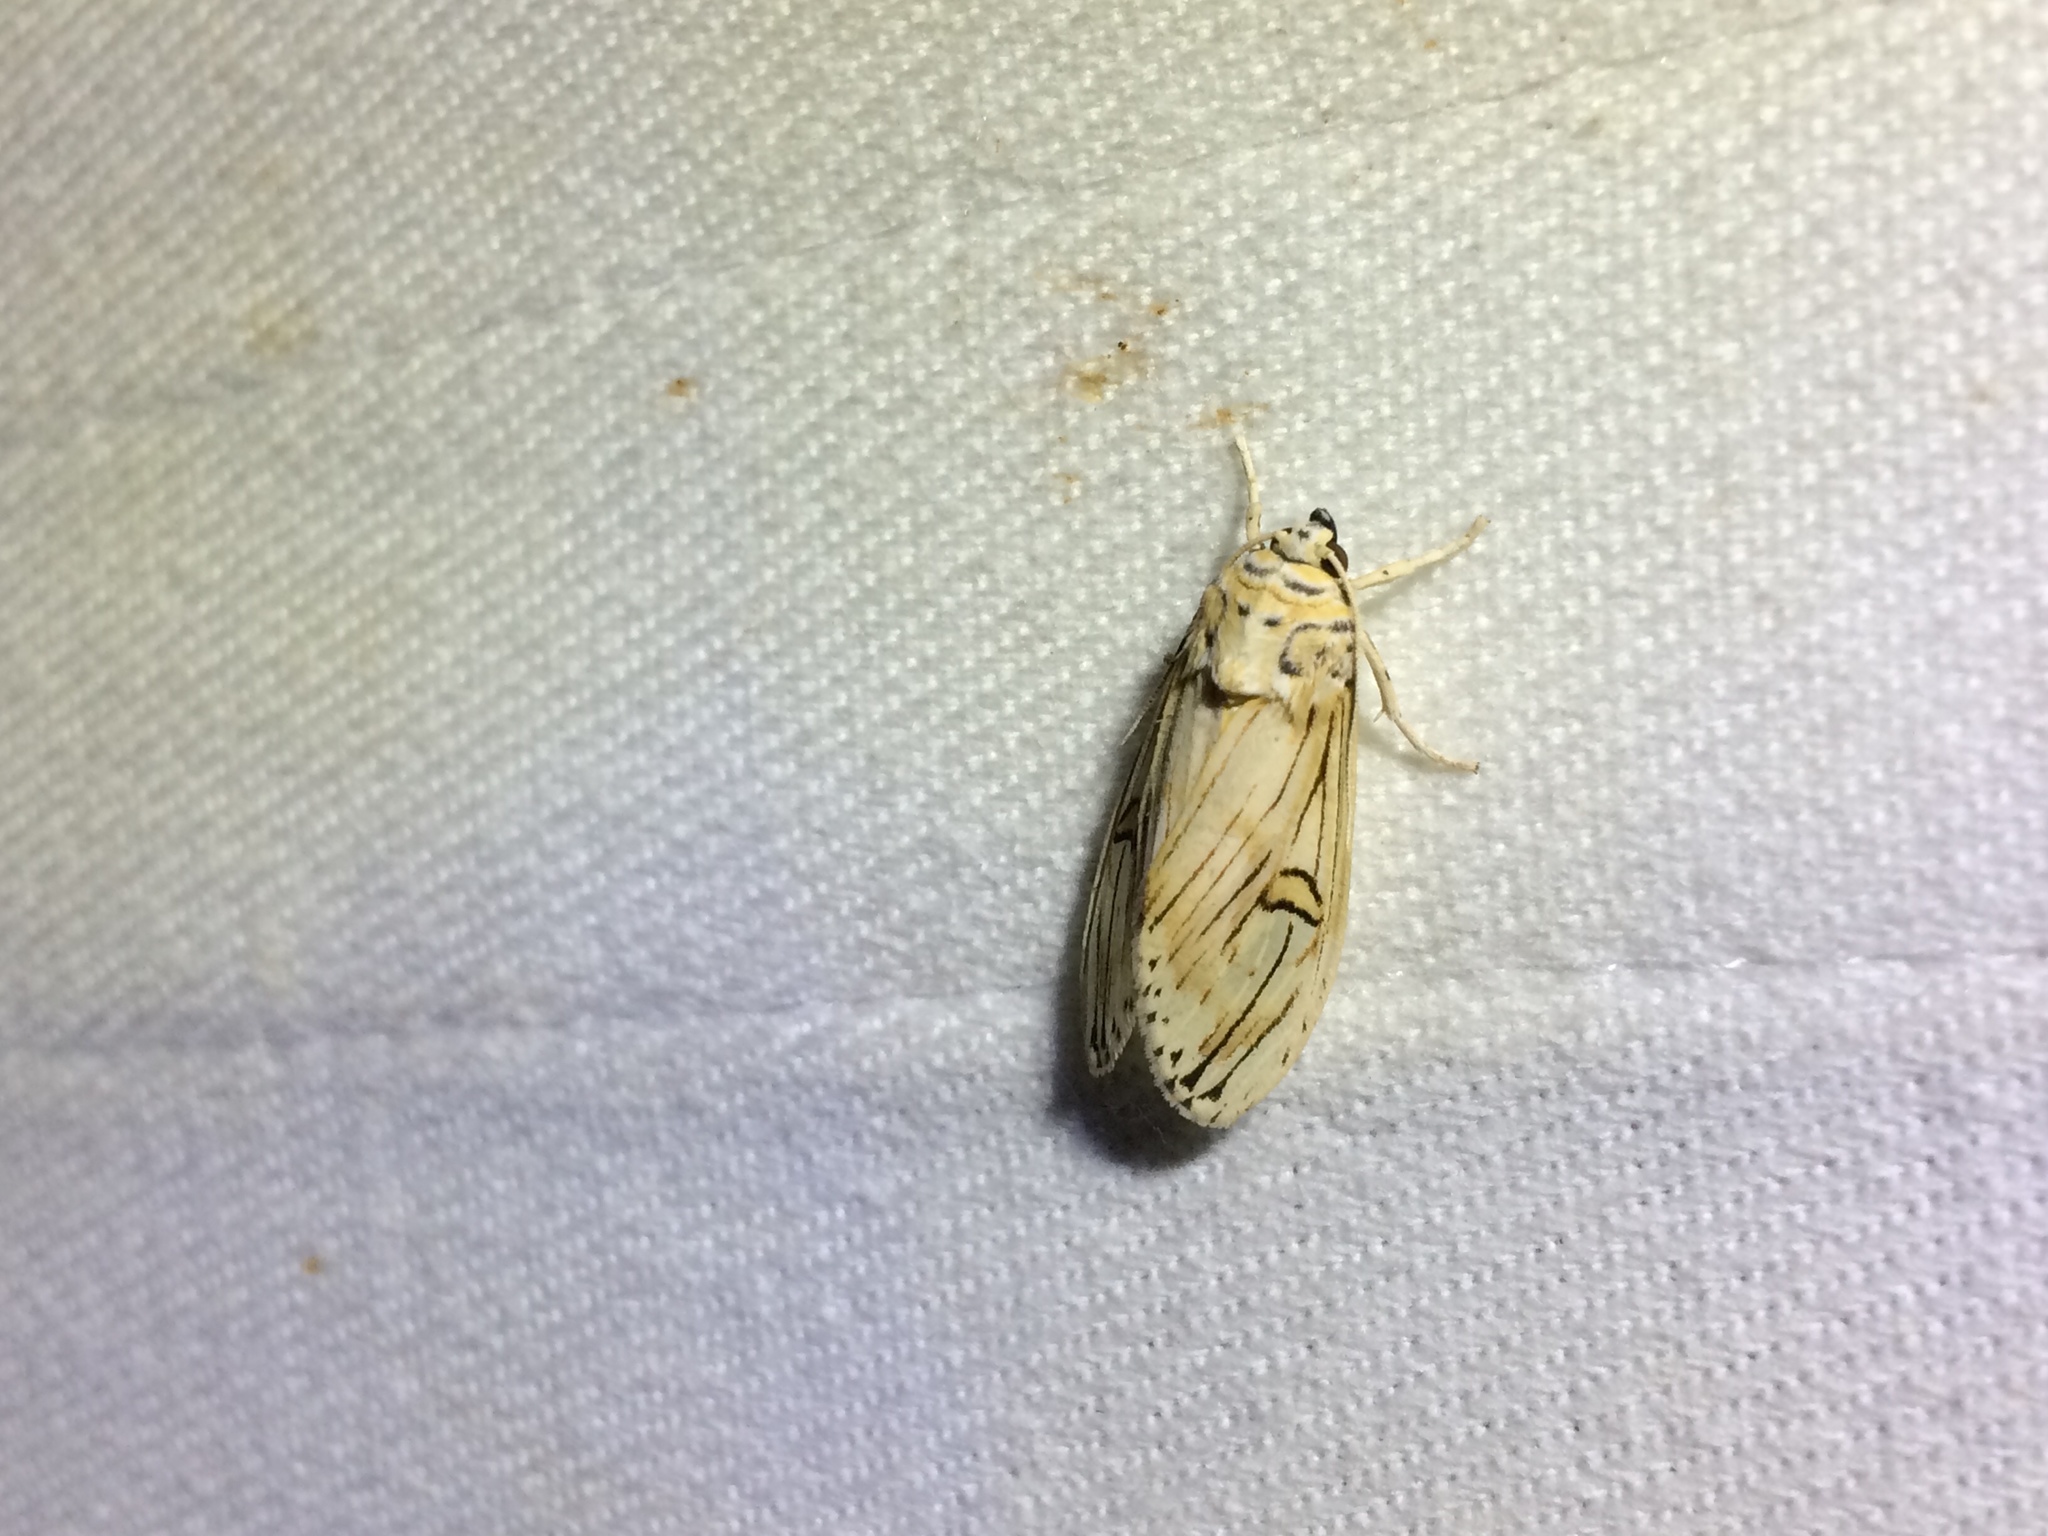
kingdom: Animalia
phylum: Arthropoda
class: Insecta
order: Lepidoptera
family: Erebidae
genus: Symphlebia
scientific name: Symphlebia abdominalis
